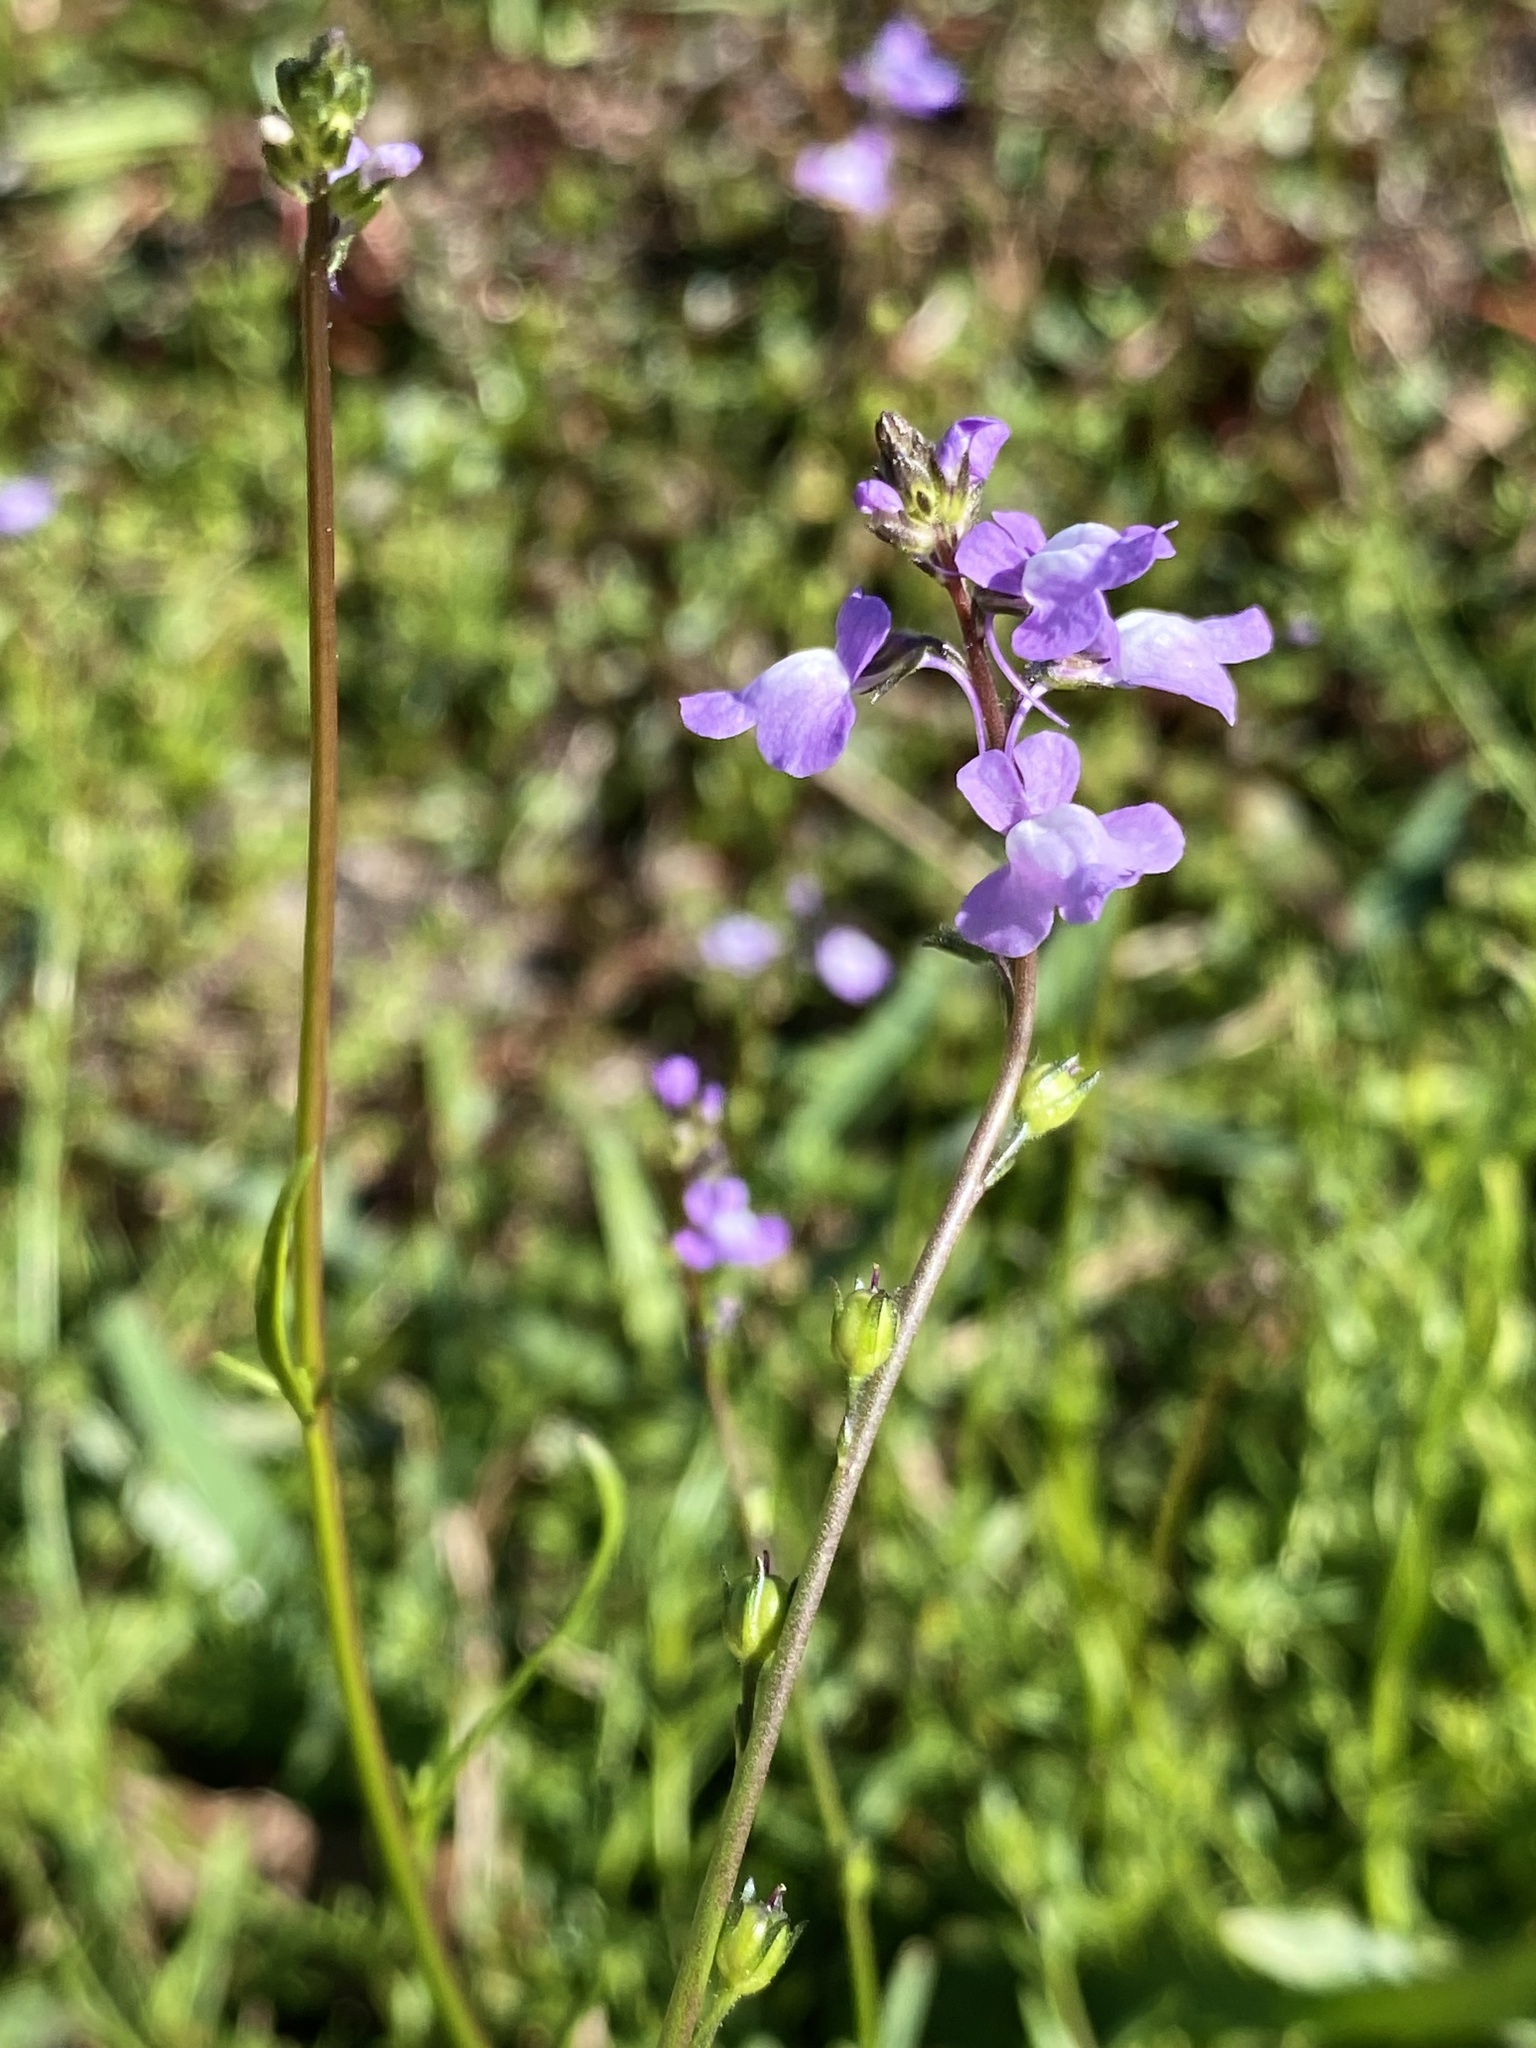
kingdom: Plantae
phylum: Tracheophyta
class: Magnoliopsida
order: Lamiales
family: Plantaginaceae
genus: Nuttallanthus
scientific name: Nuttallanthus canadensis
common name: Blue toadflax
